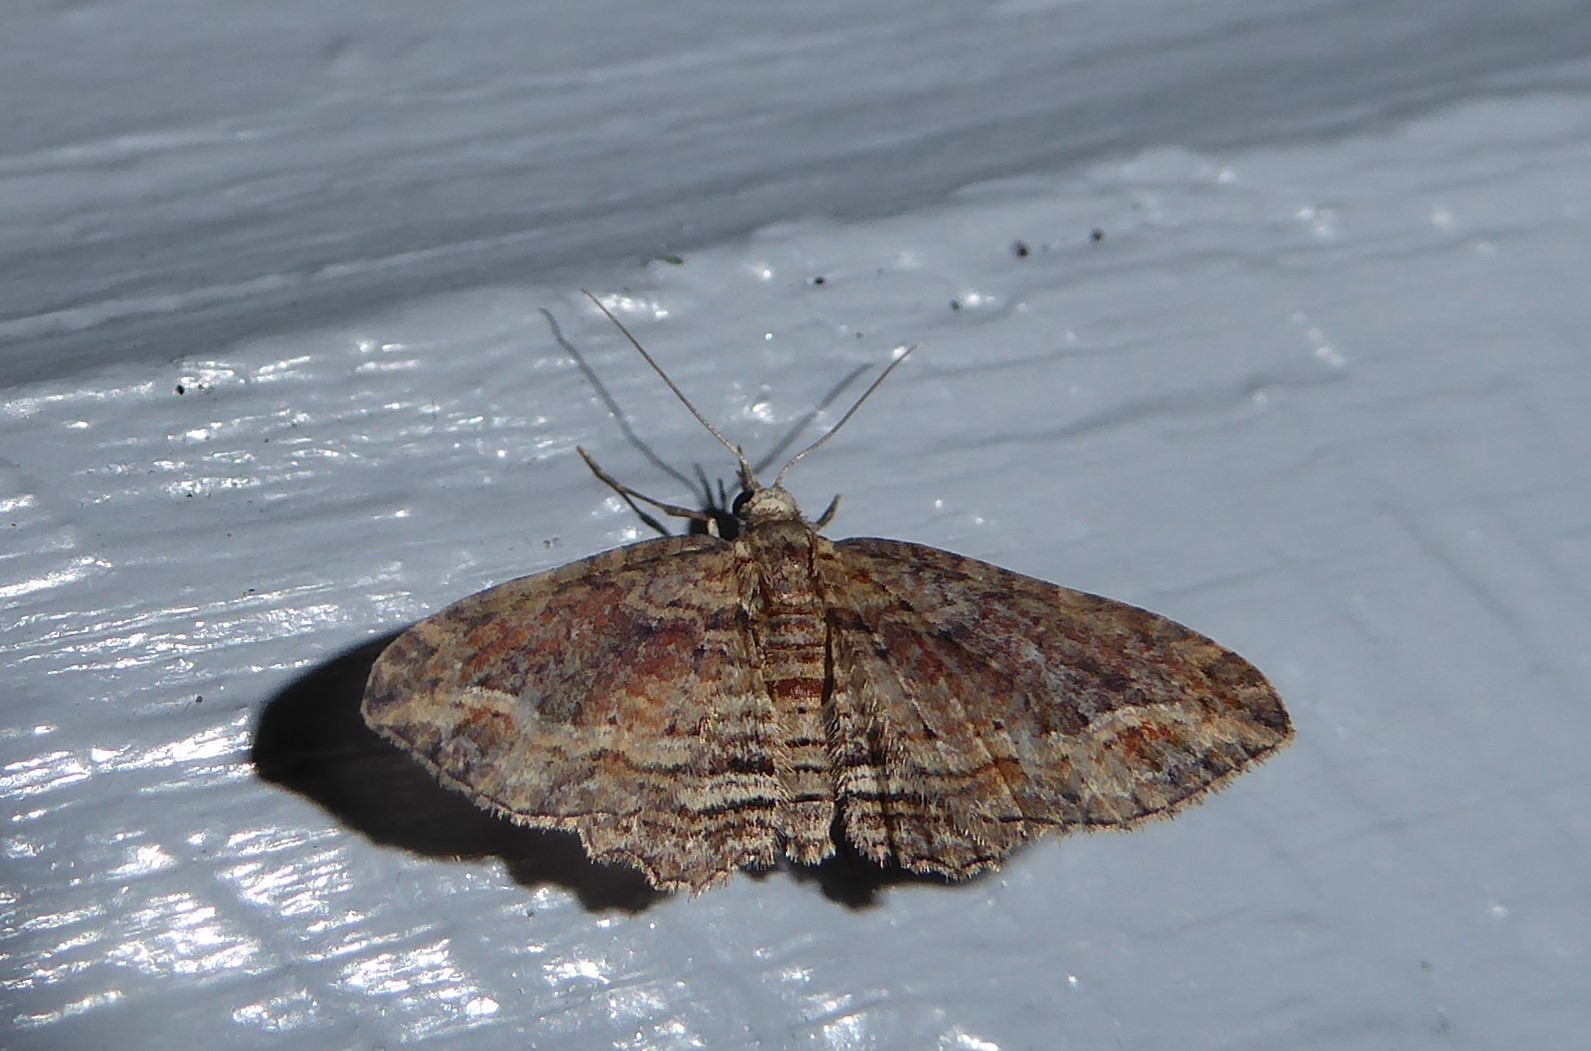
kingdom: Animalia
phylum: Arthropoda
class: Insecta
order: Lepidoptera
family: Geometridae
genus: Chloroclystis
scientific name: Chloroclystis filata
